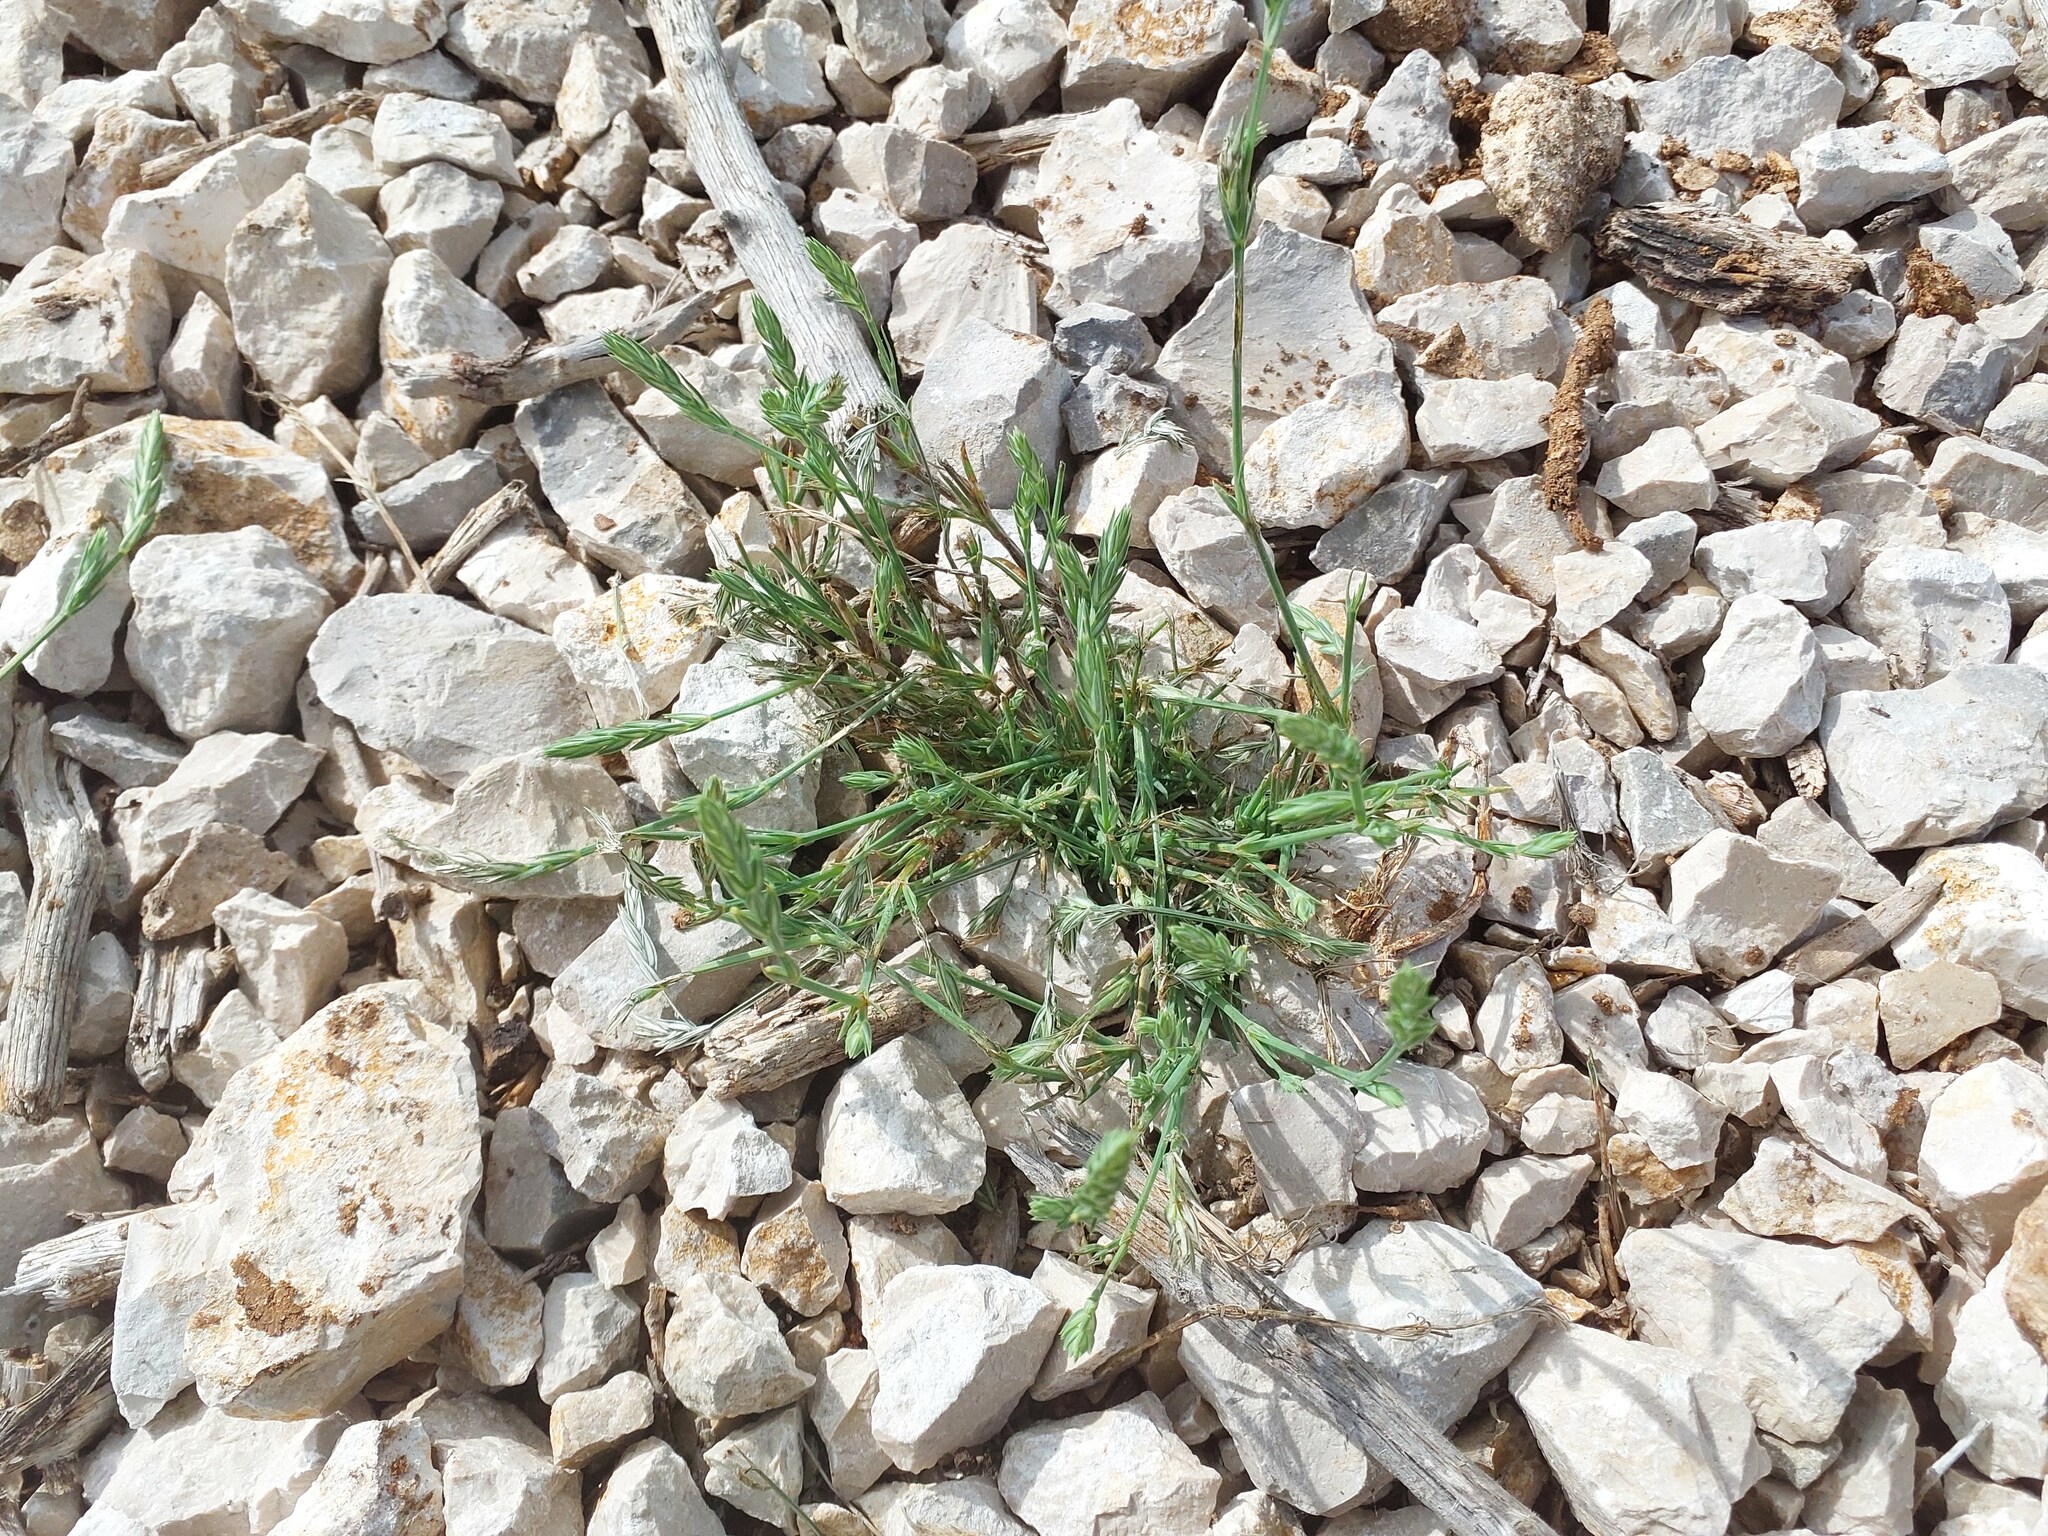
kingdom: Plantae
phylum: Tracheophyta
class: Magnoliopsida
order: Gentianales
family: Rubiaceae
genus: Crucianella
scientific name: Crucianella angustifolia
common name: Narrowleaf crucianella
